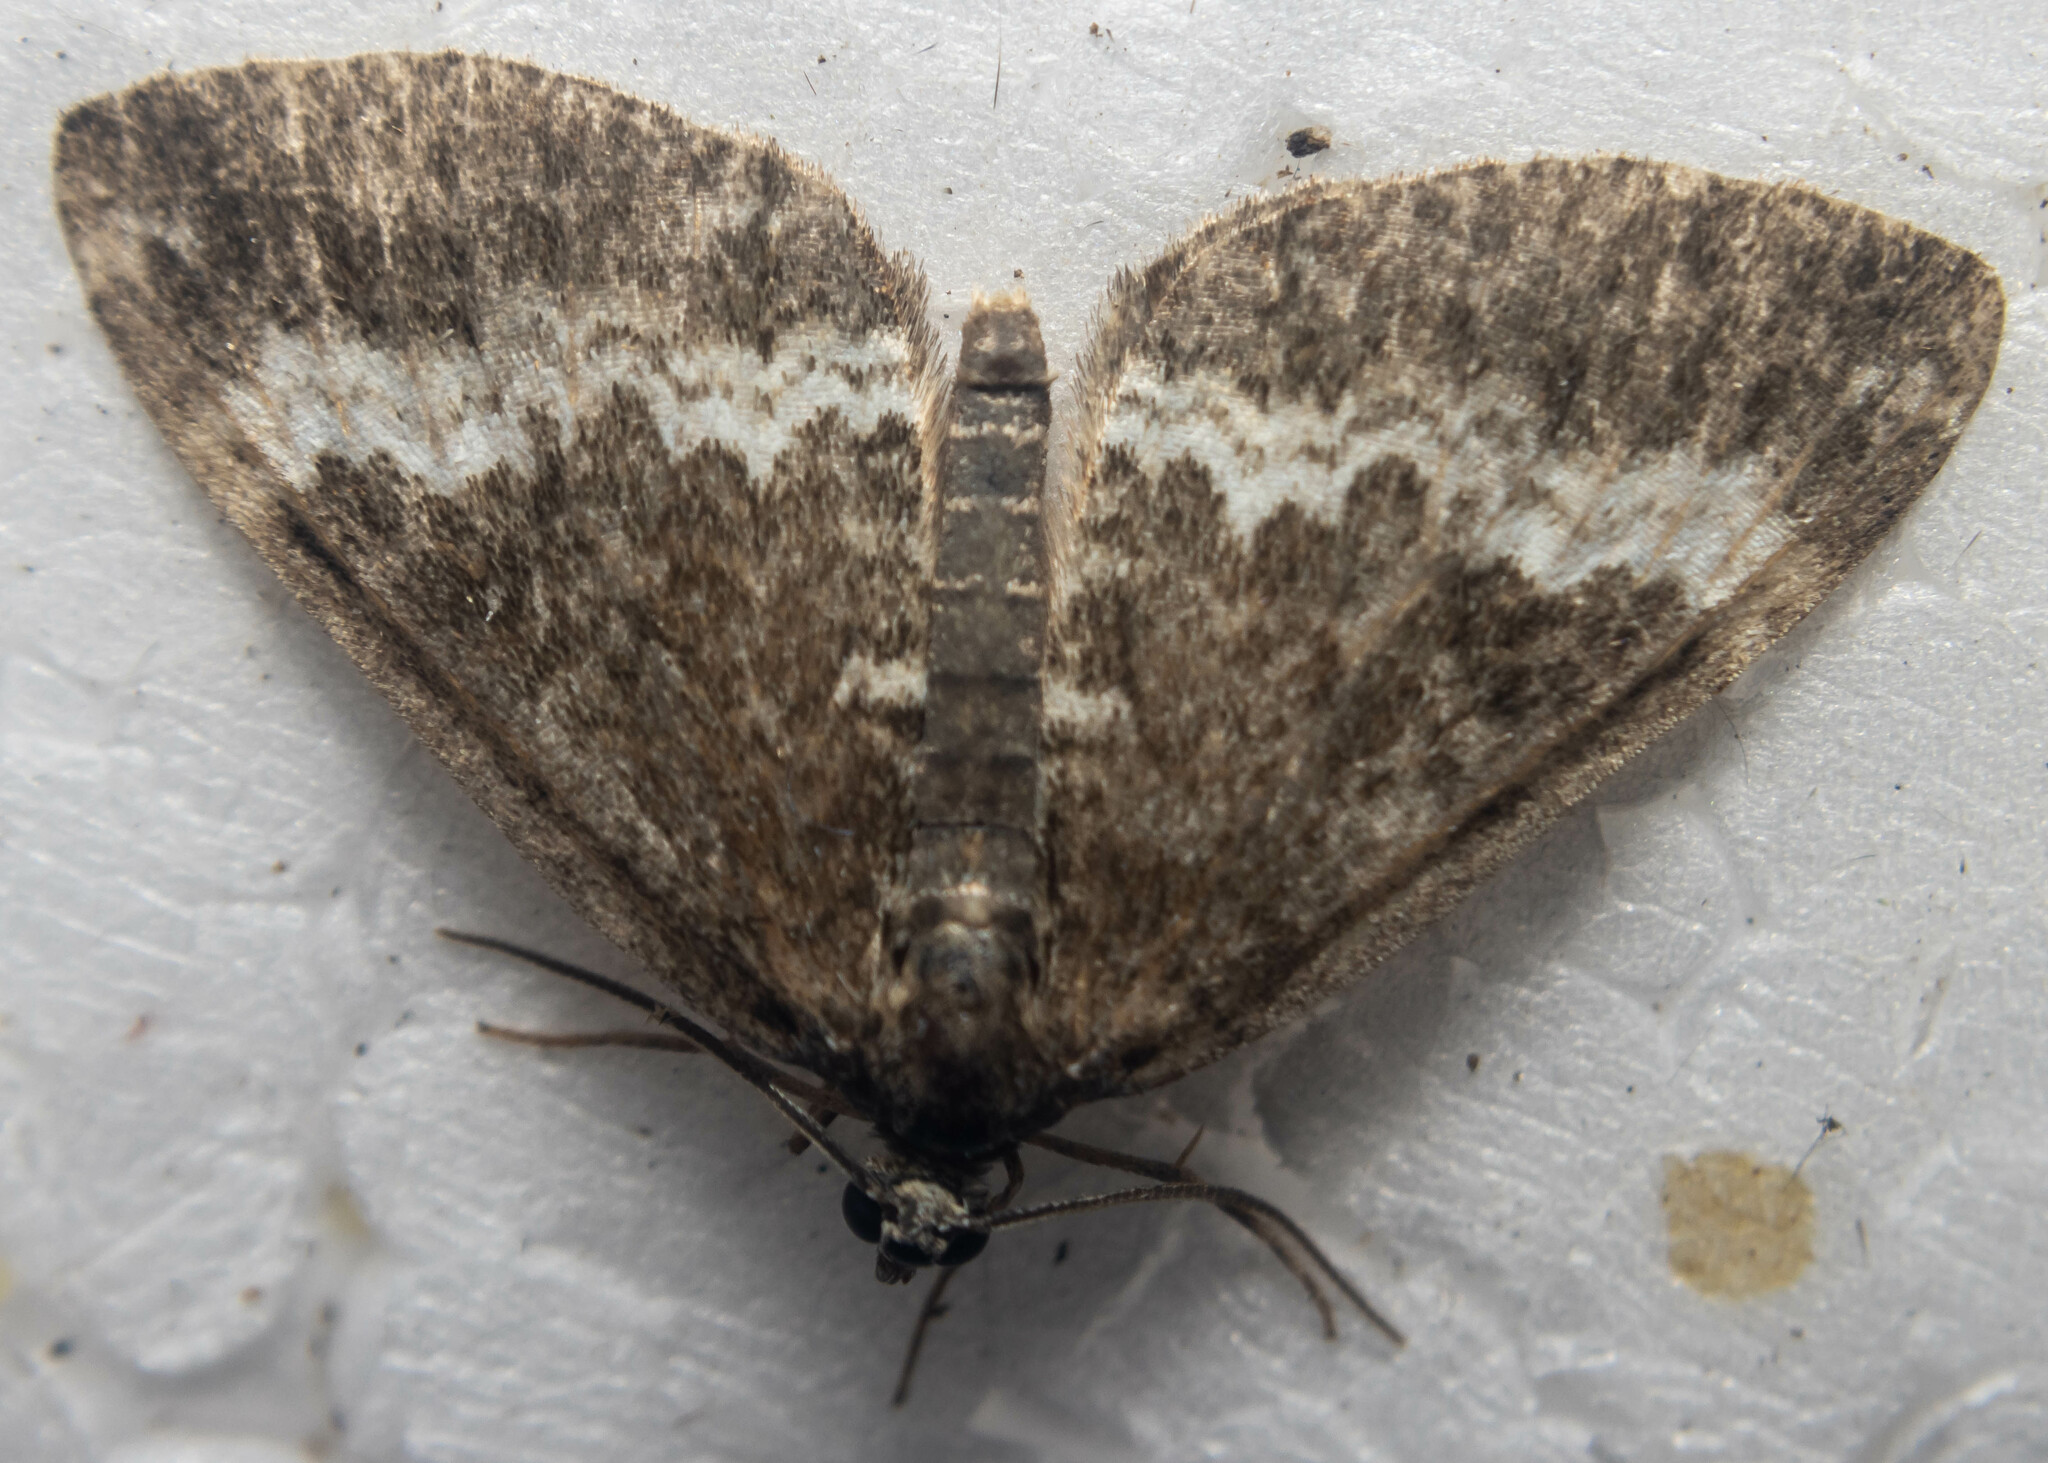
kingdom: Animalia
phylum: Arthropoda
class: Insecta
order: Lepidoptera
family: Geometridae
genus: Perizoma
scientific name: Perizoma affinitata
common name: Rivulet
